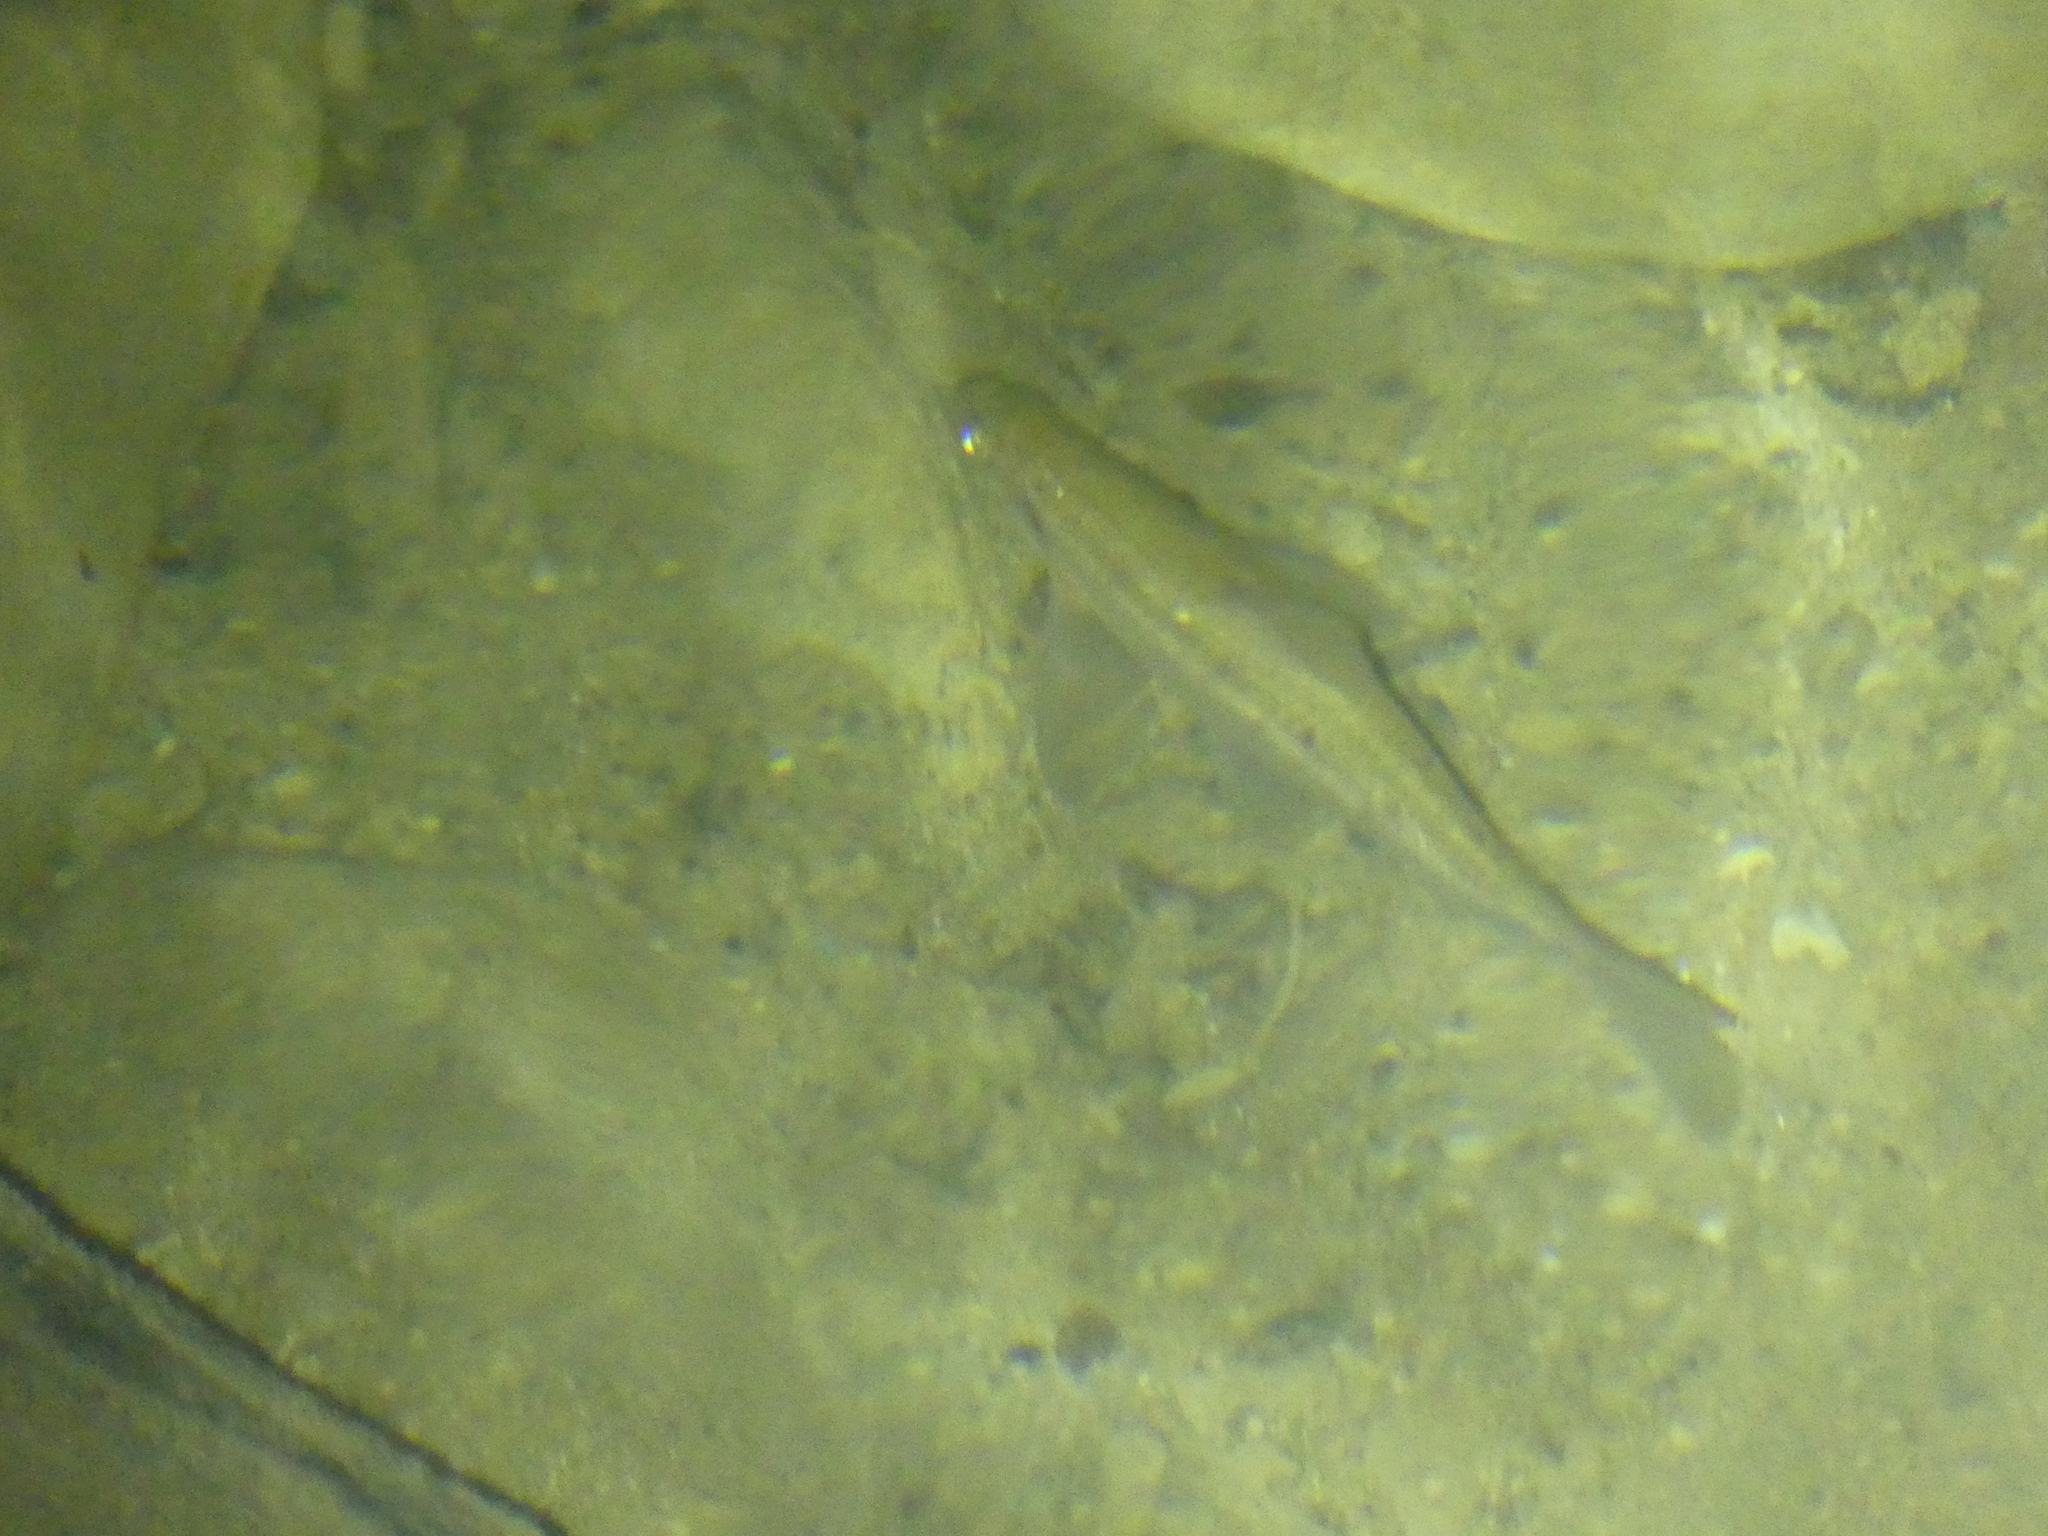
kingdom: Animalia
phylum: Chordata
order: Cypriniformes
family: Cyprinidae
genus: Phoxinus
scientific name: Phoxinus phoxinus
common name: Minnow
